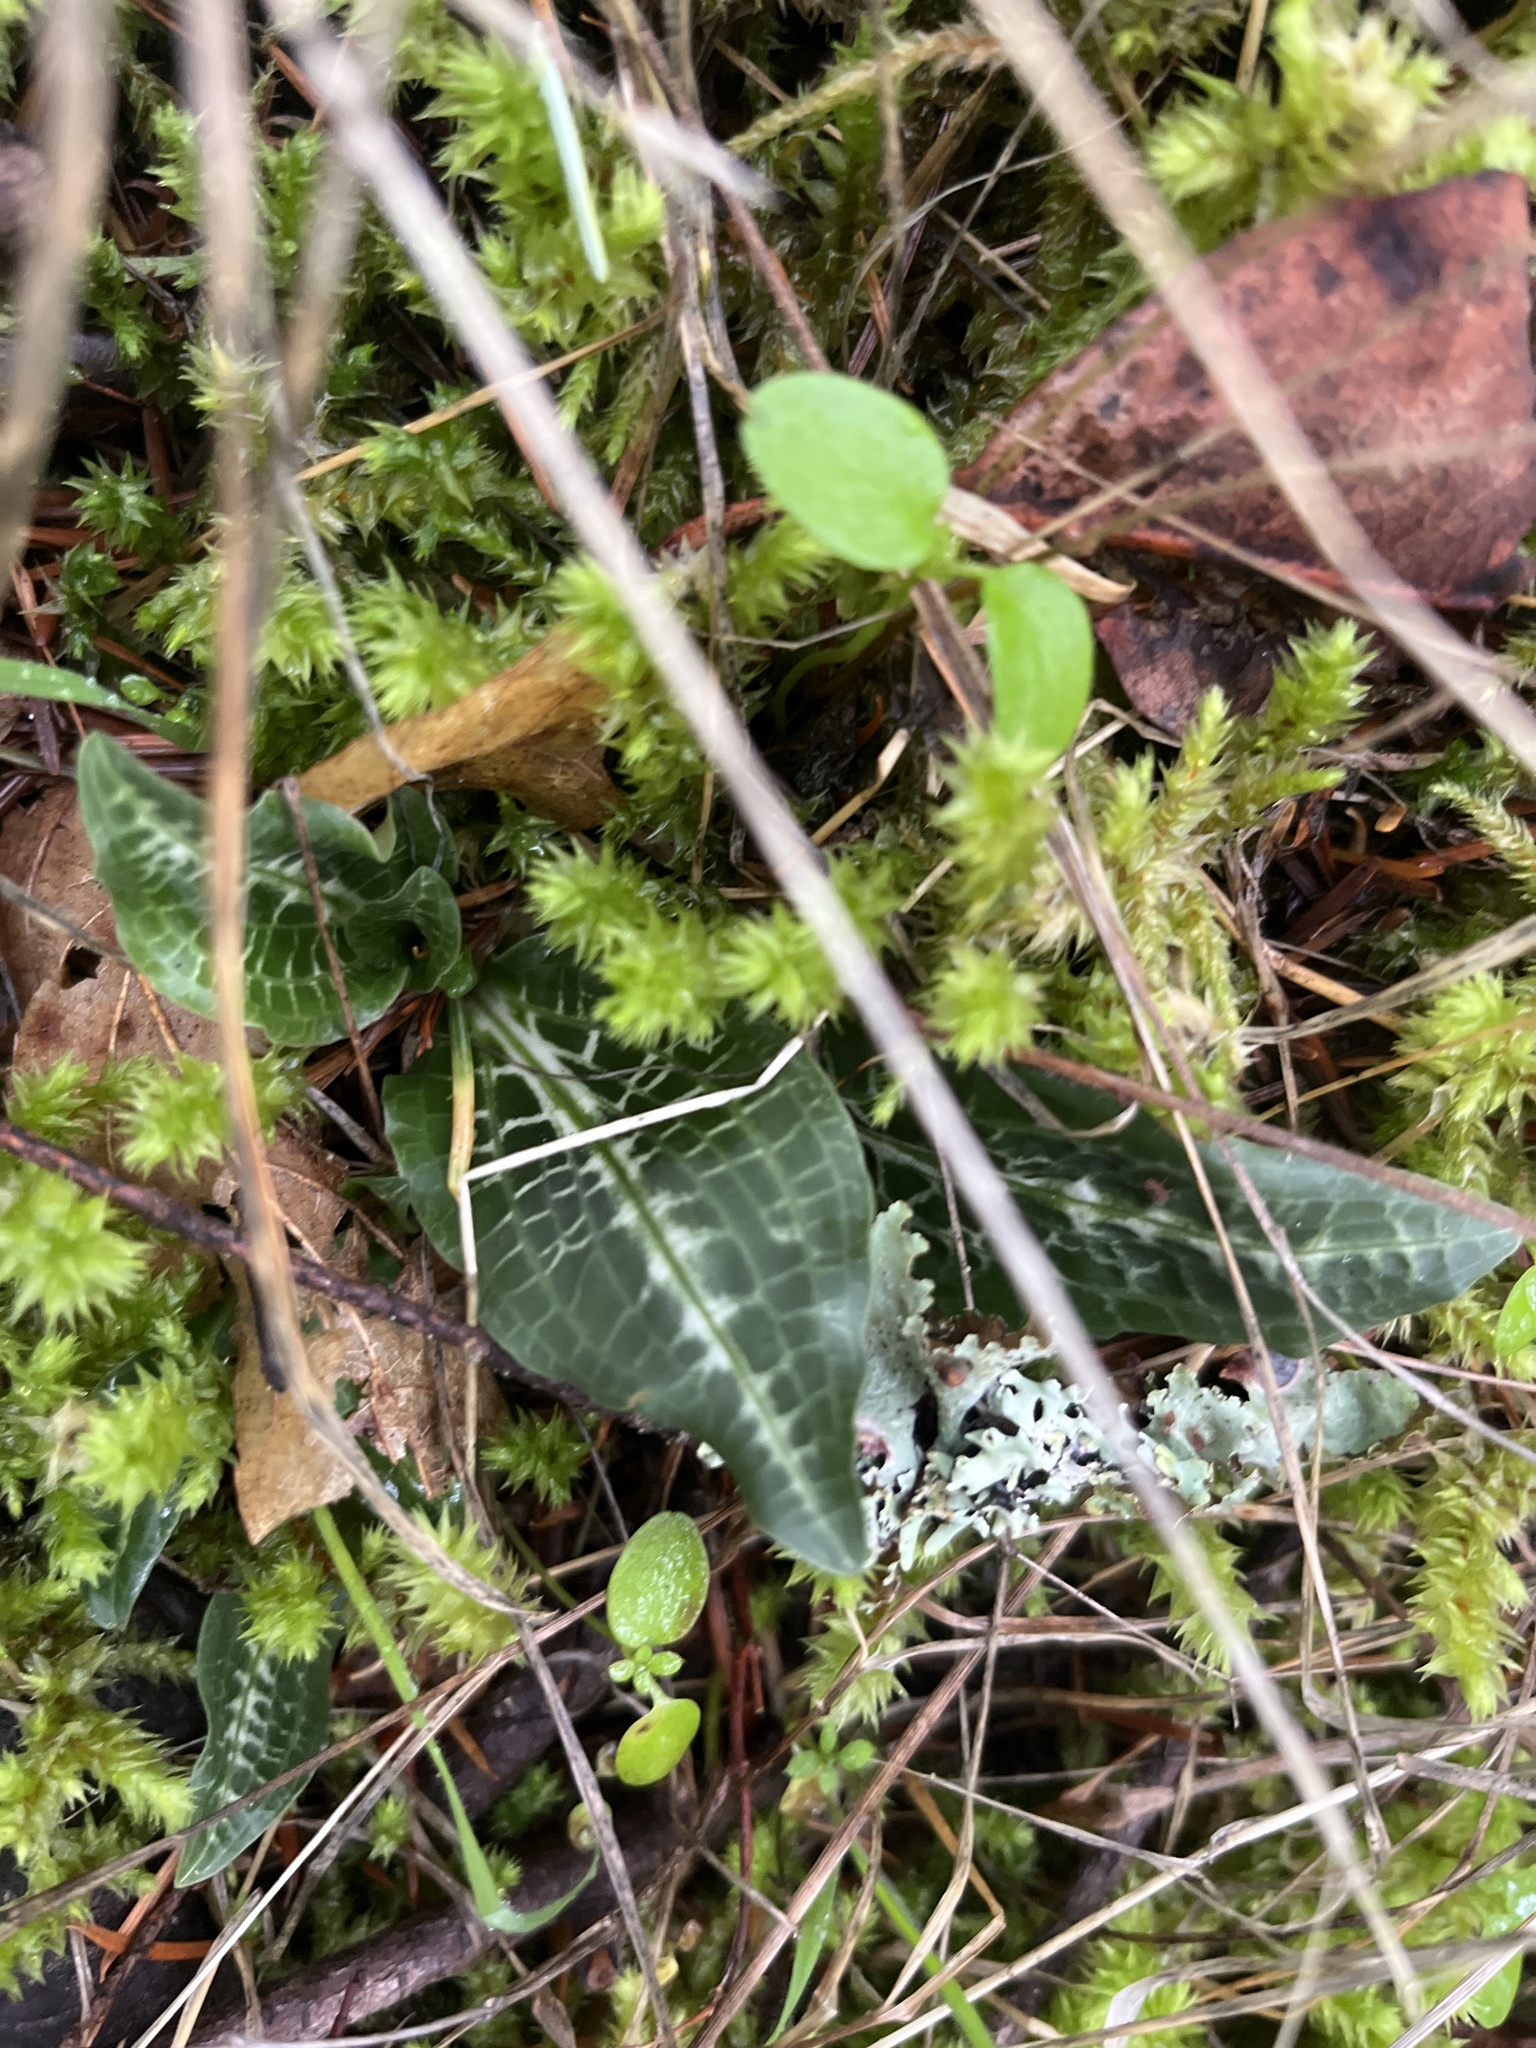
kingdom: Plantae
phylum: Tracheophyta
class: Liliopsida
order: Asparagales
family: Orchidaceae
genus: Goodyera
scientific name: Goodyera oblongifolia
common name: Giant rattlesnake-plantain
